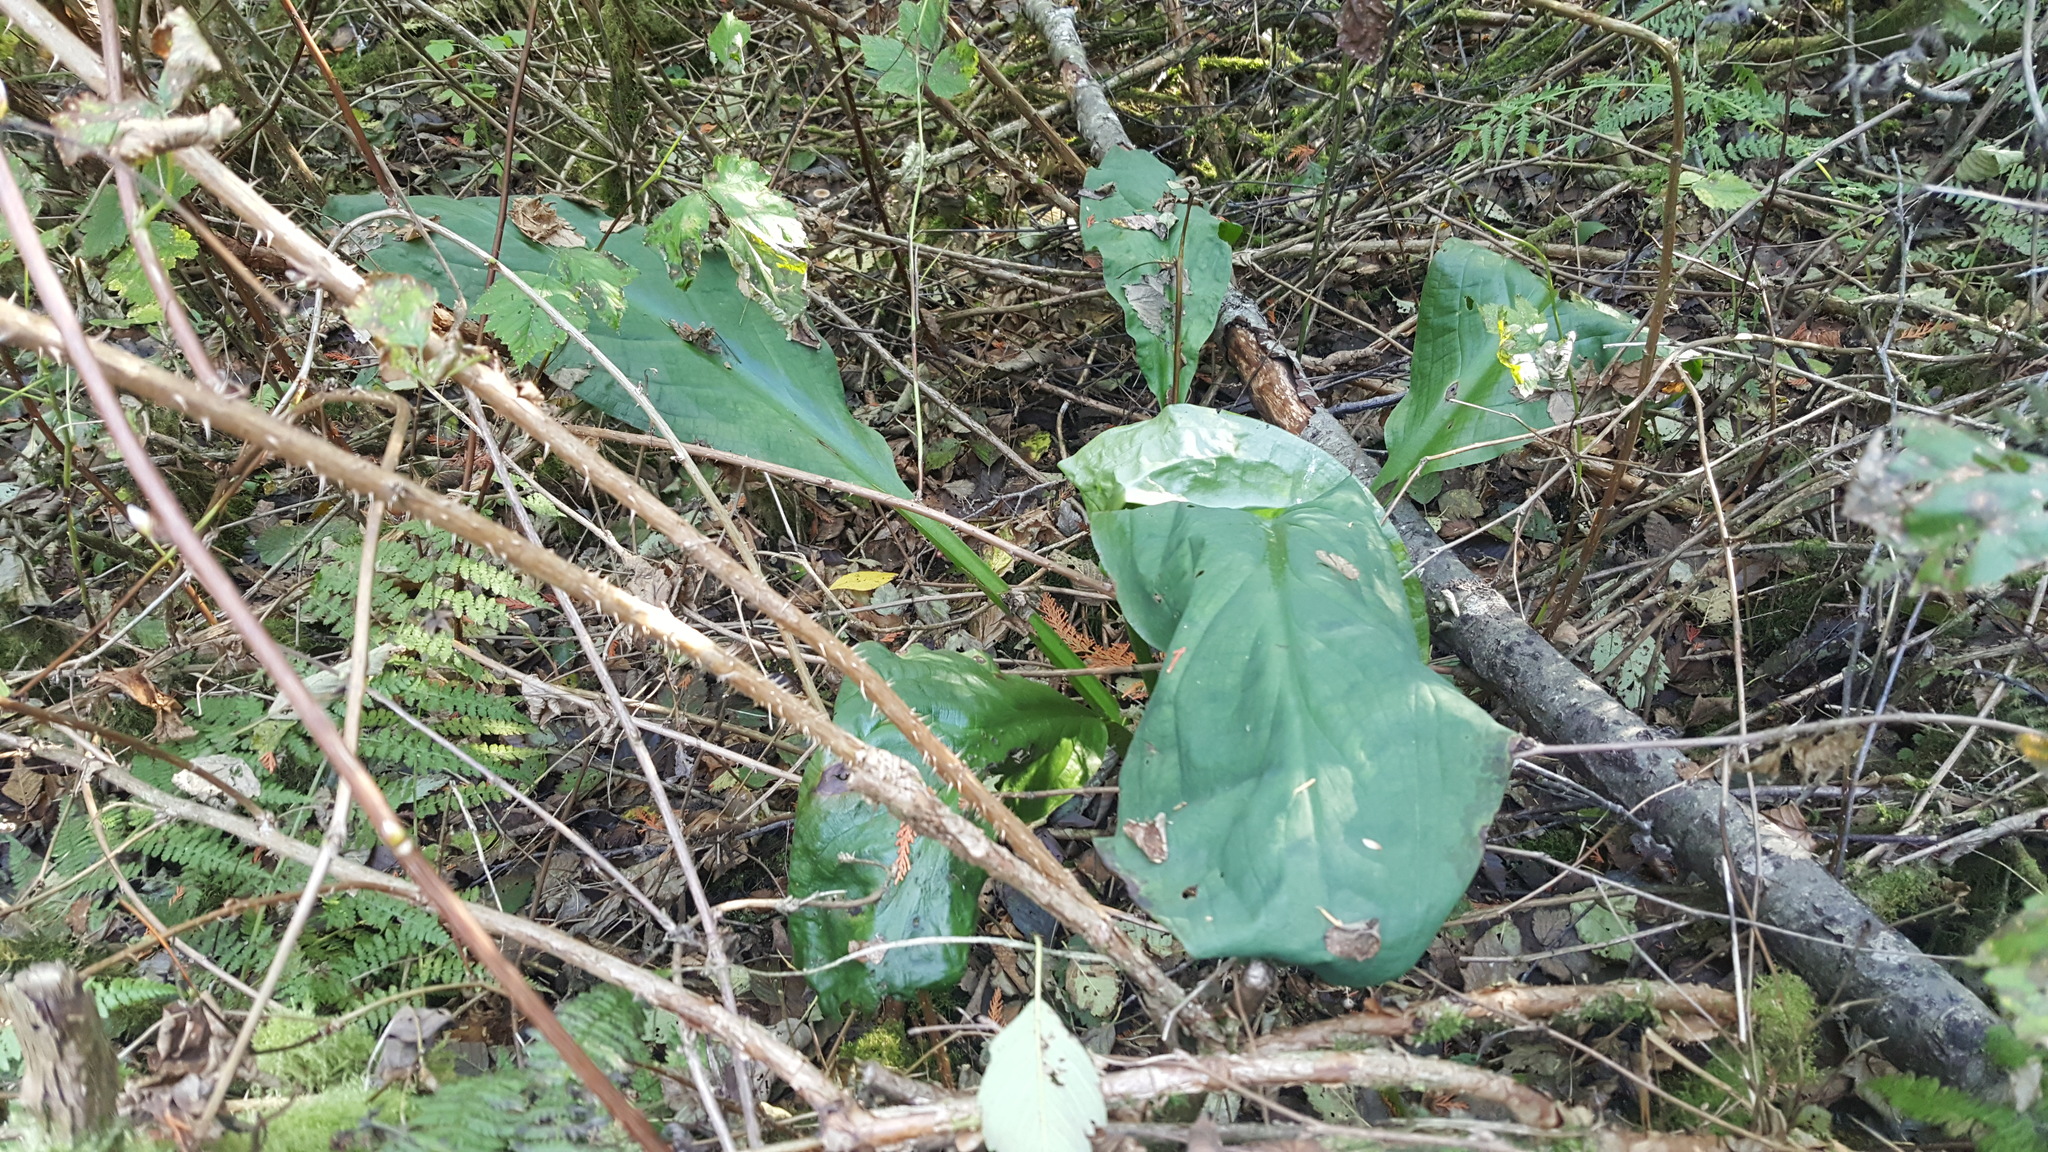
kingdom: Plantae
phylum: Tracheophyta
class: Liliopsida
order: Alismatales
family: Araceae
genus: Lysichiton
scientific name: Lysichiton americanus
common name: American skunk cabbage
